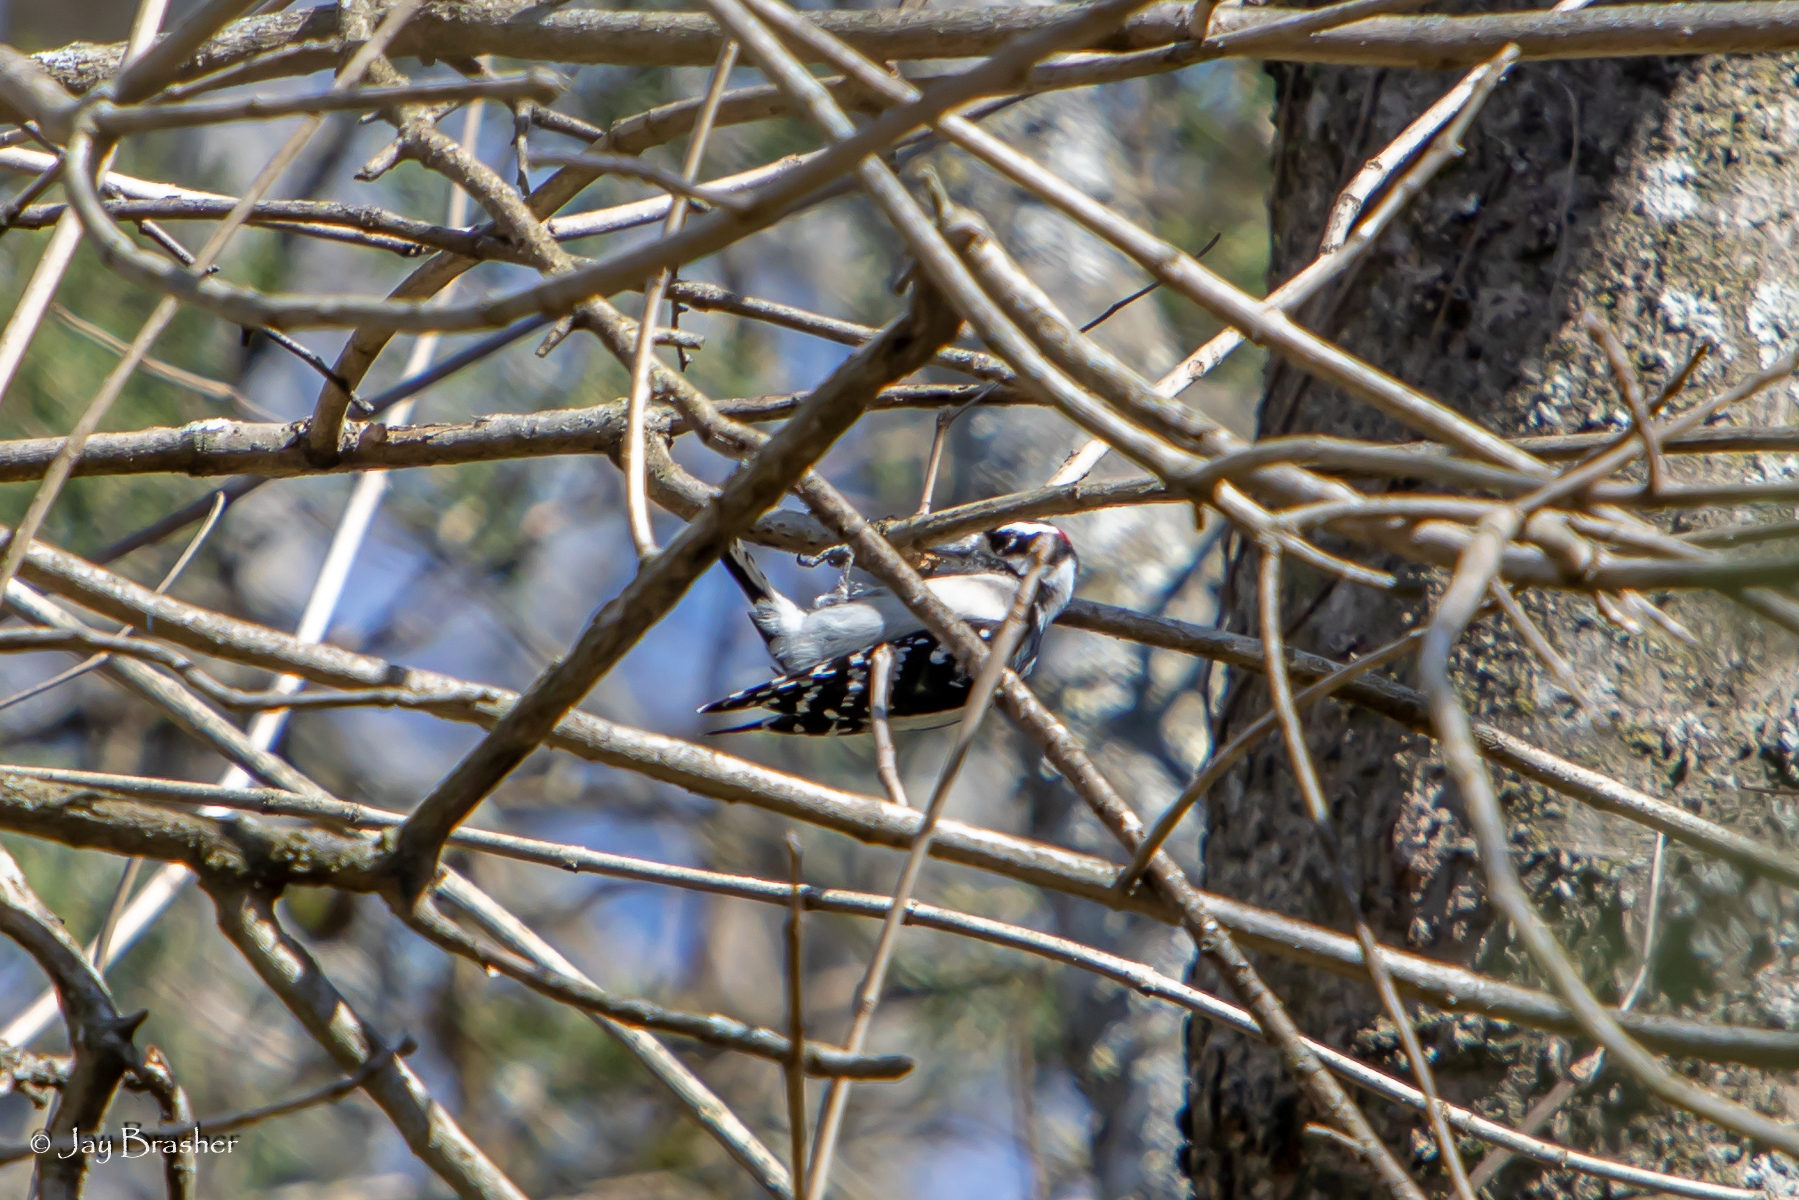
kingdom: Animalia
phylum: Chordata
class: Aves
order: Piciformes
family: Picidae
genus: Dryobates
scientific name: Dryobates pubescens
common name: Downy woodpecker
